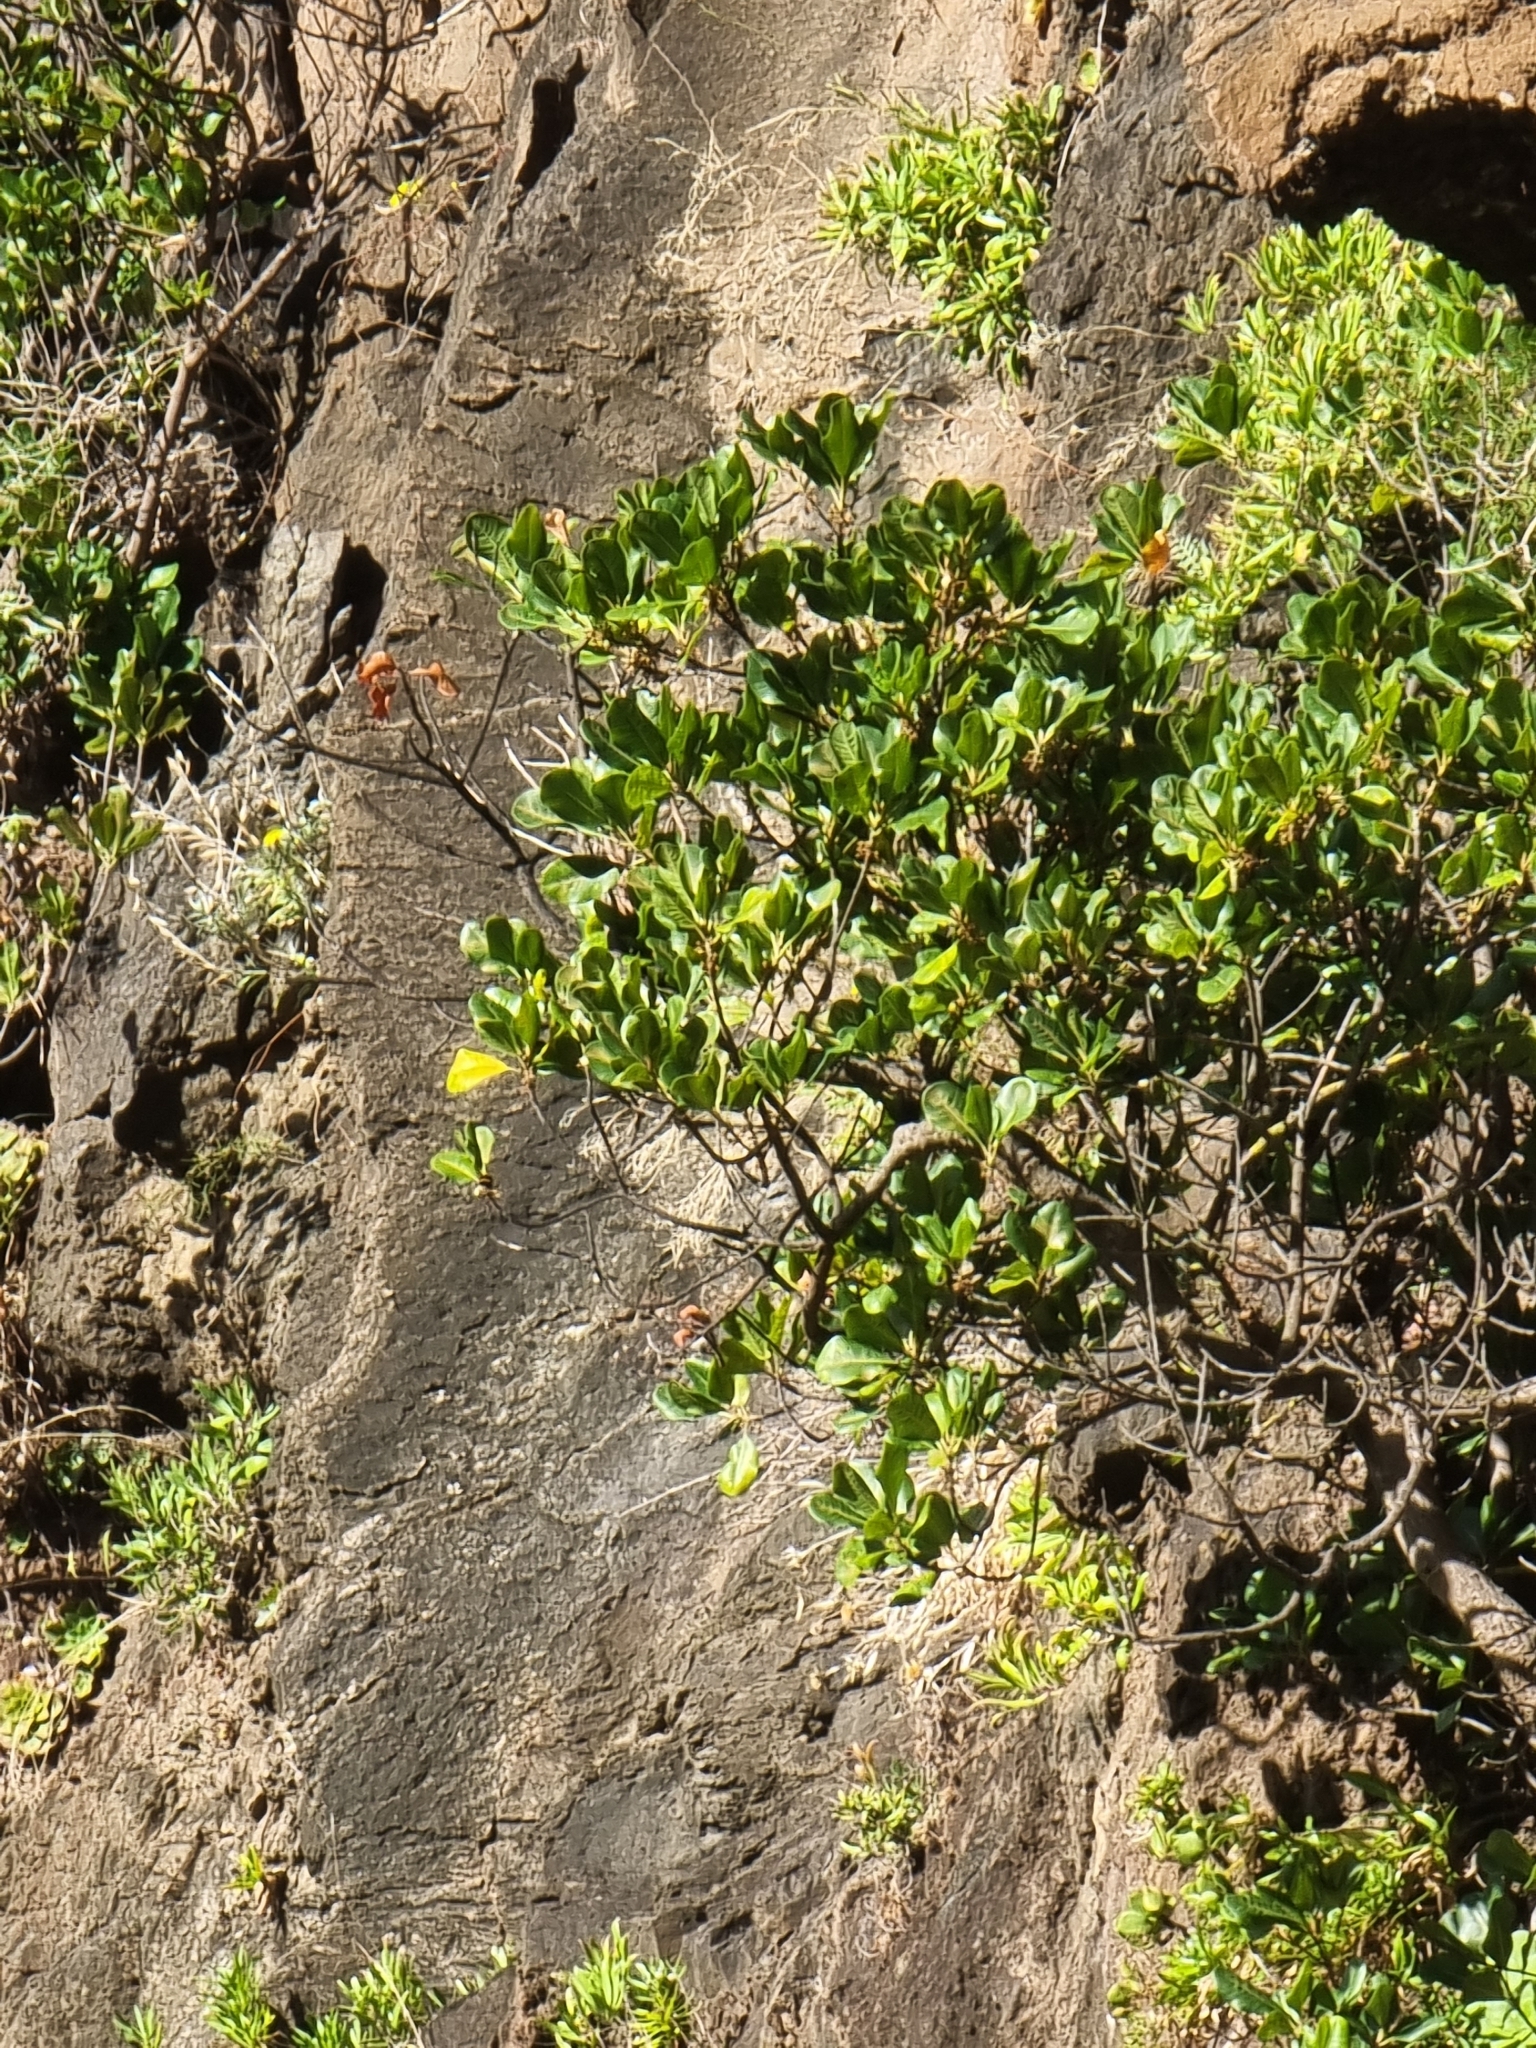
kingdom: Plantae
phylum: Tracheophyta
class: Magnoliopsida
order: Ericales
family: Sapotaceae
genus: Sideroxylon
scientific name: Sideroxylon mirmulans
